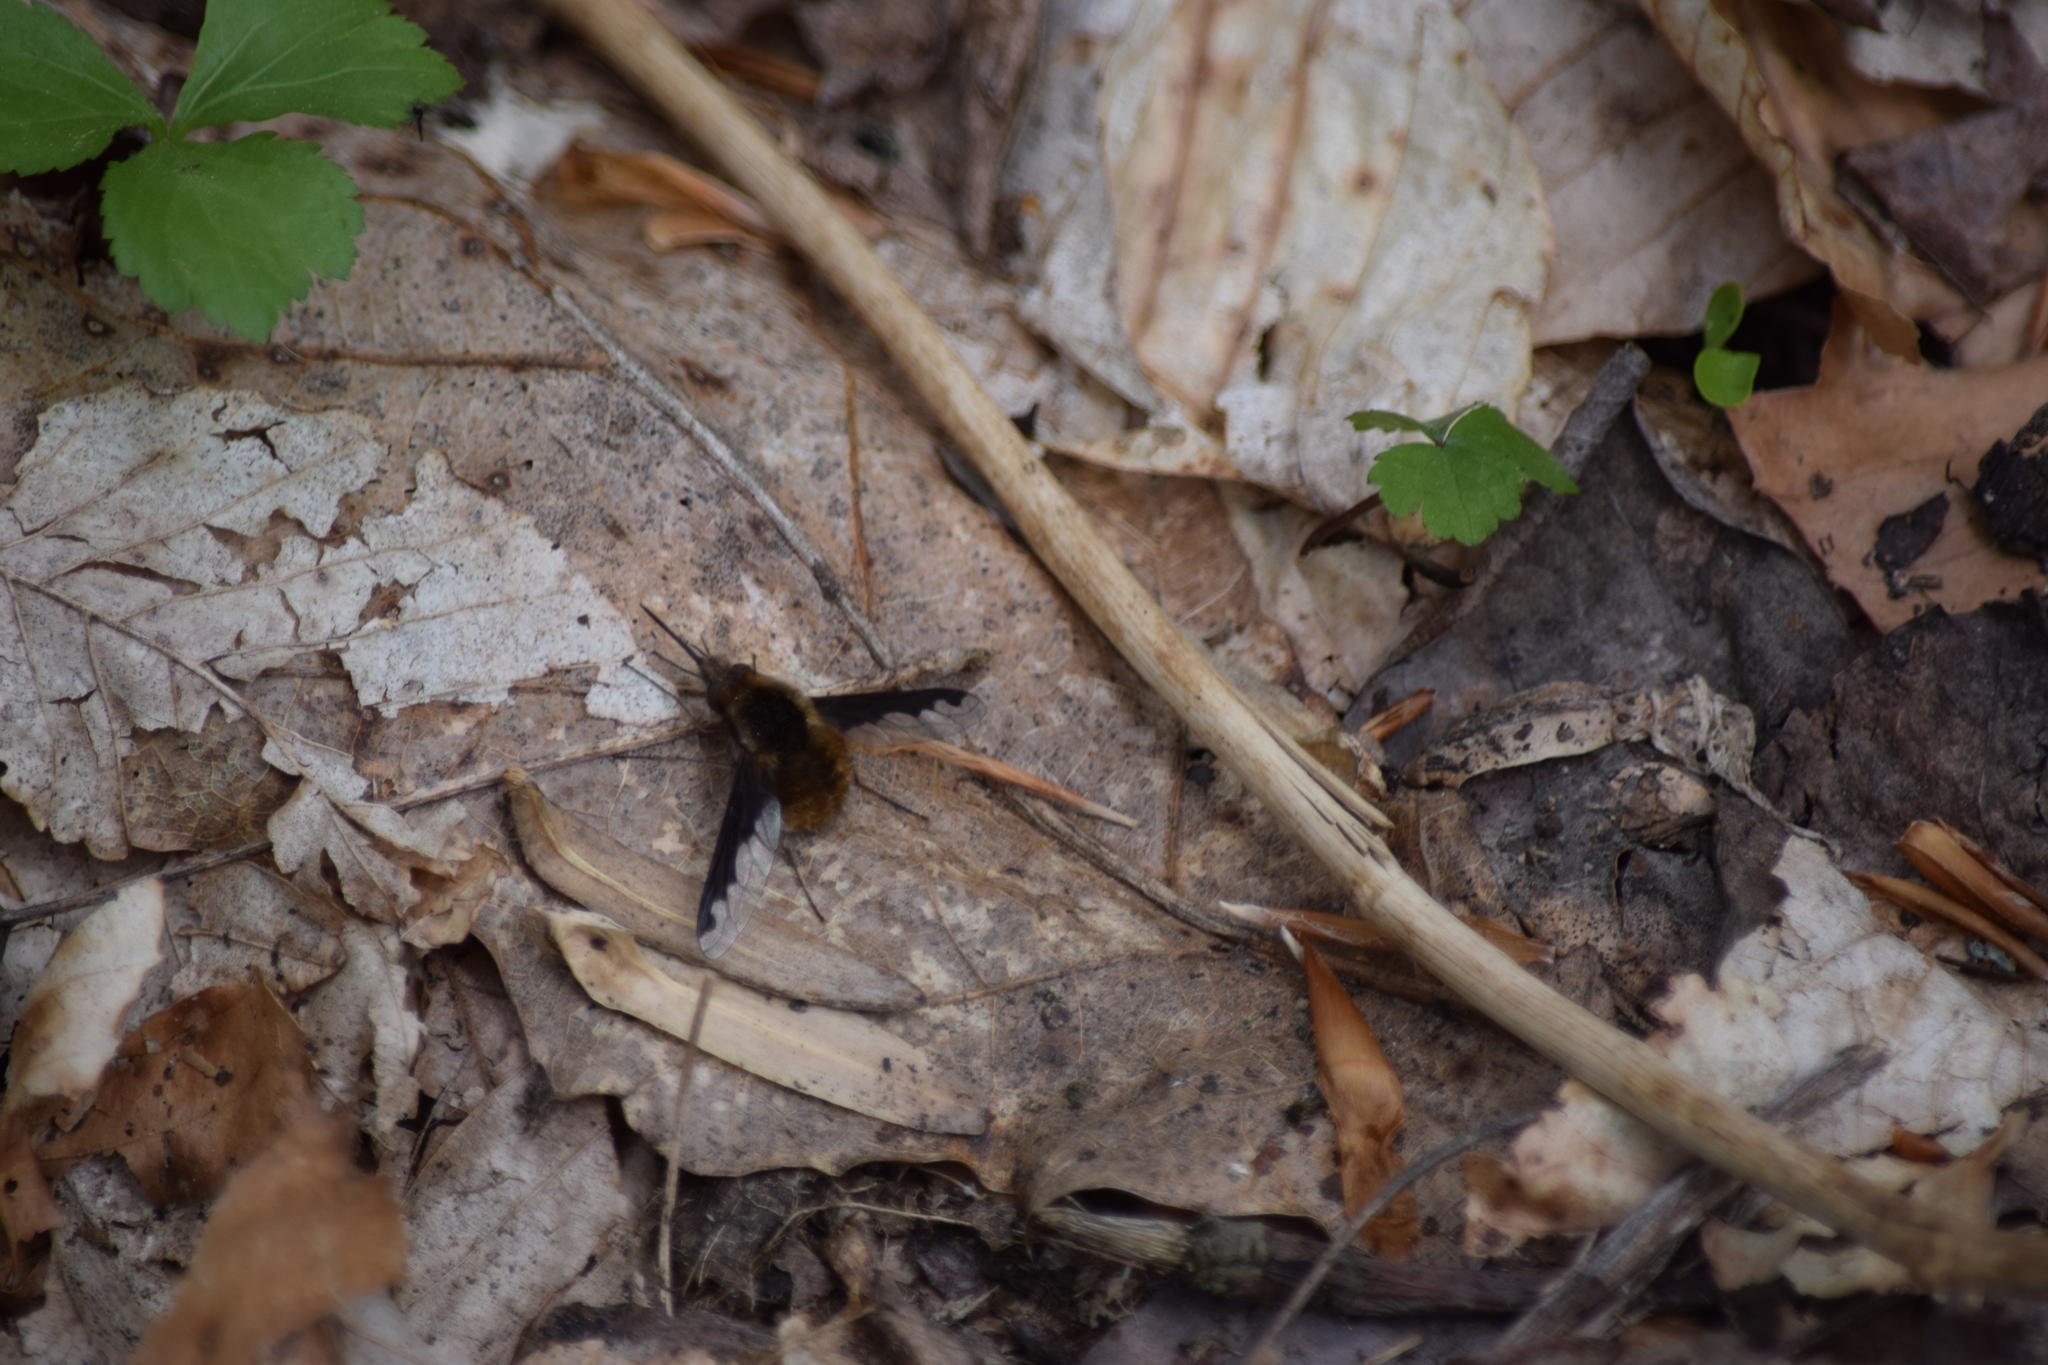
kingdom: Animalia
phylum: Arthropoda
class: Insecta
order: Diptera
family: Bombyliidae
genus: Bombylius
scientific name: Bombylius major
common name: Bee fly
